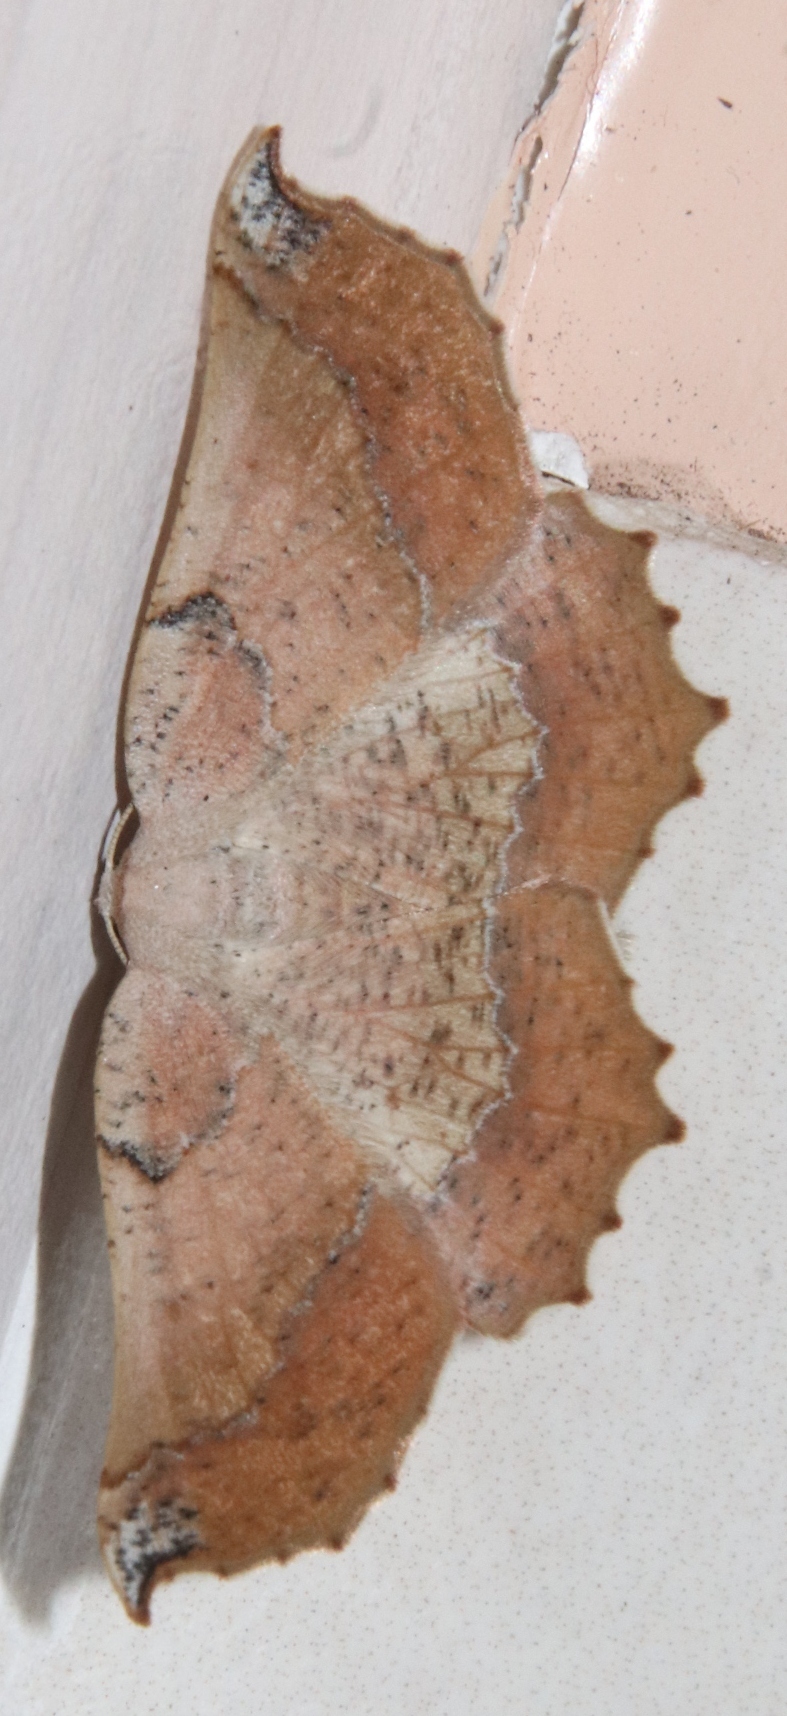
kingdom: Animalia
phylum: Arthropoda
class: Insecta
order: Lepidoptera
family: Geometridae
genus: Drepanogynis
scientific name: Drepanogynis mixtaria
